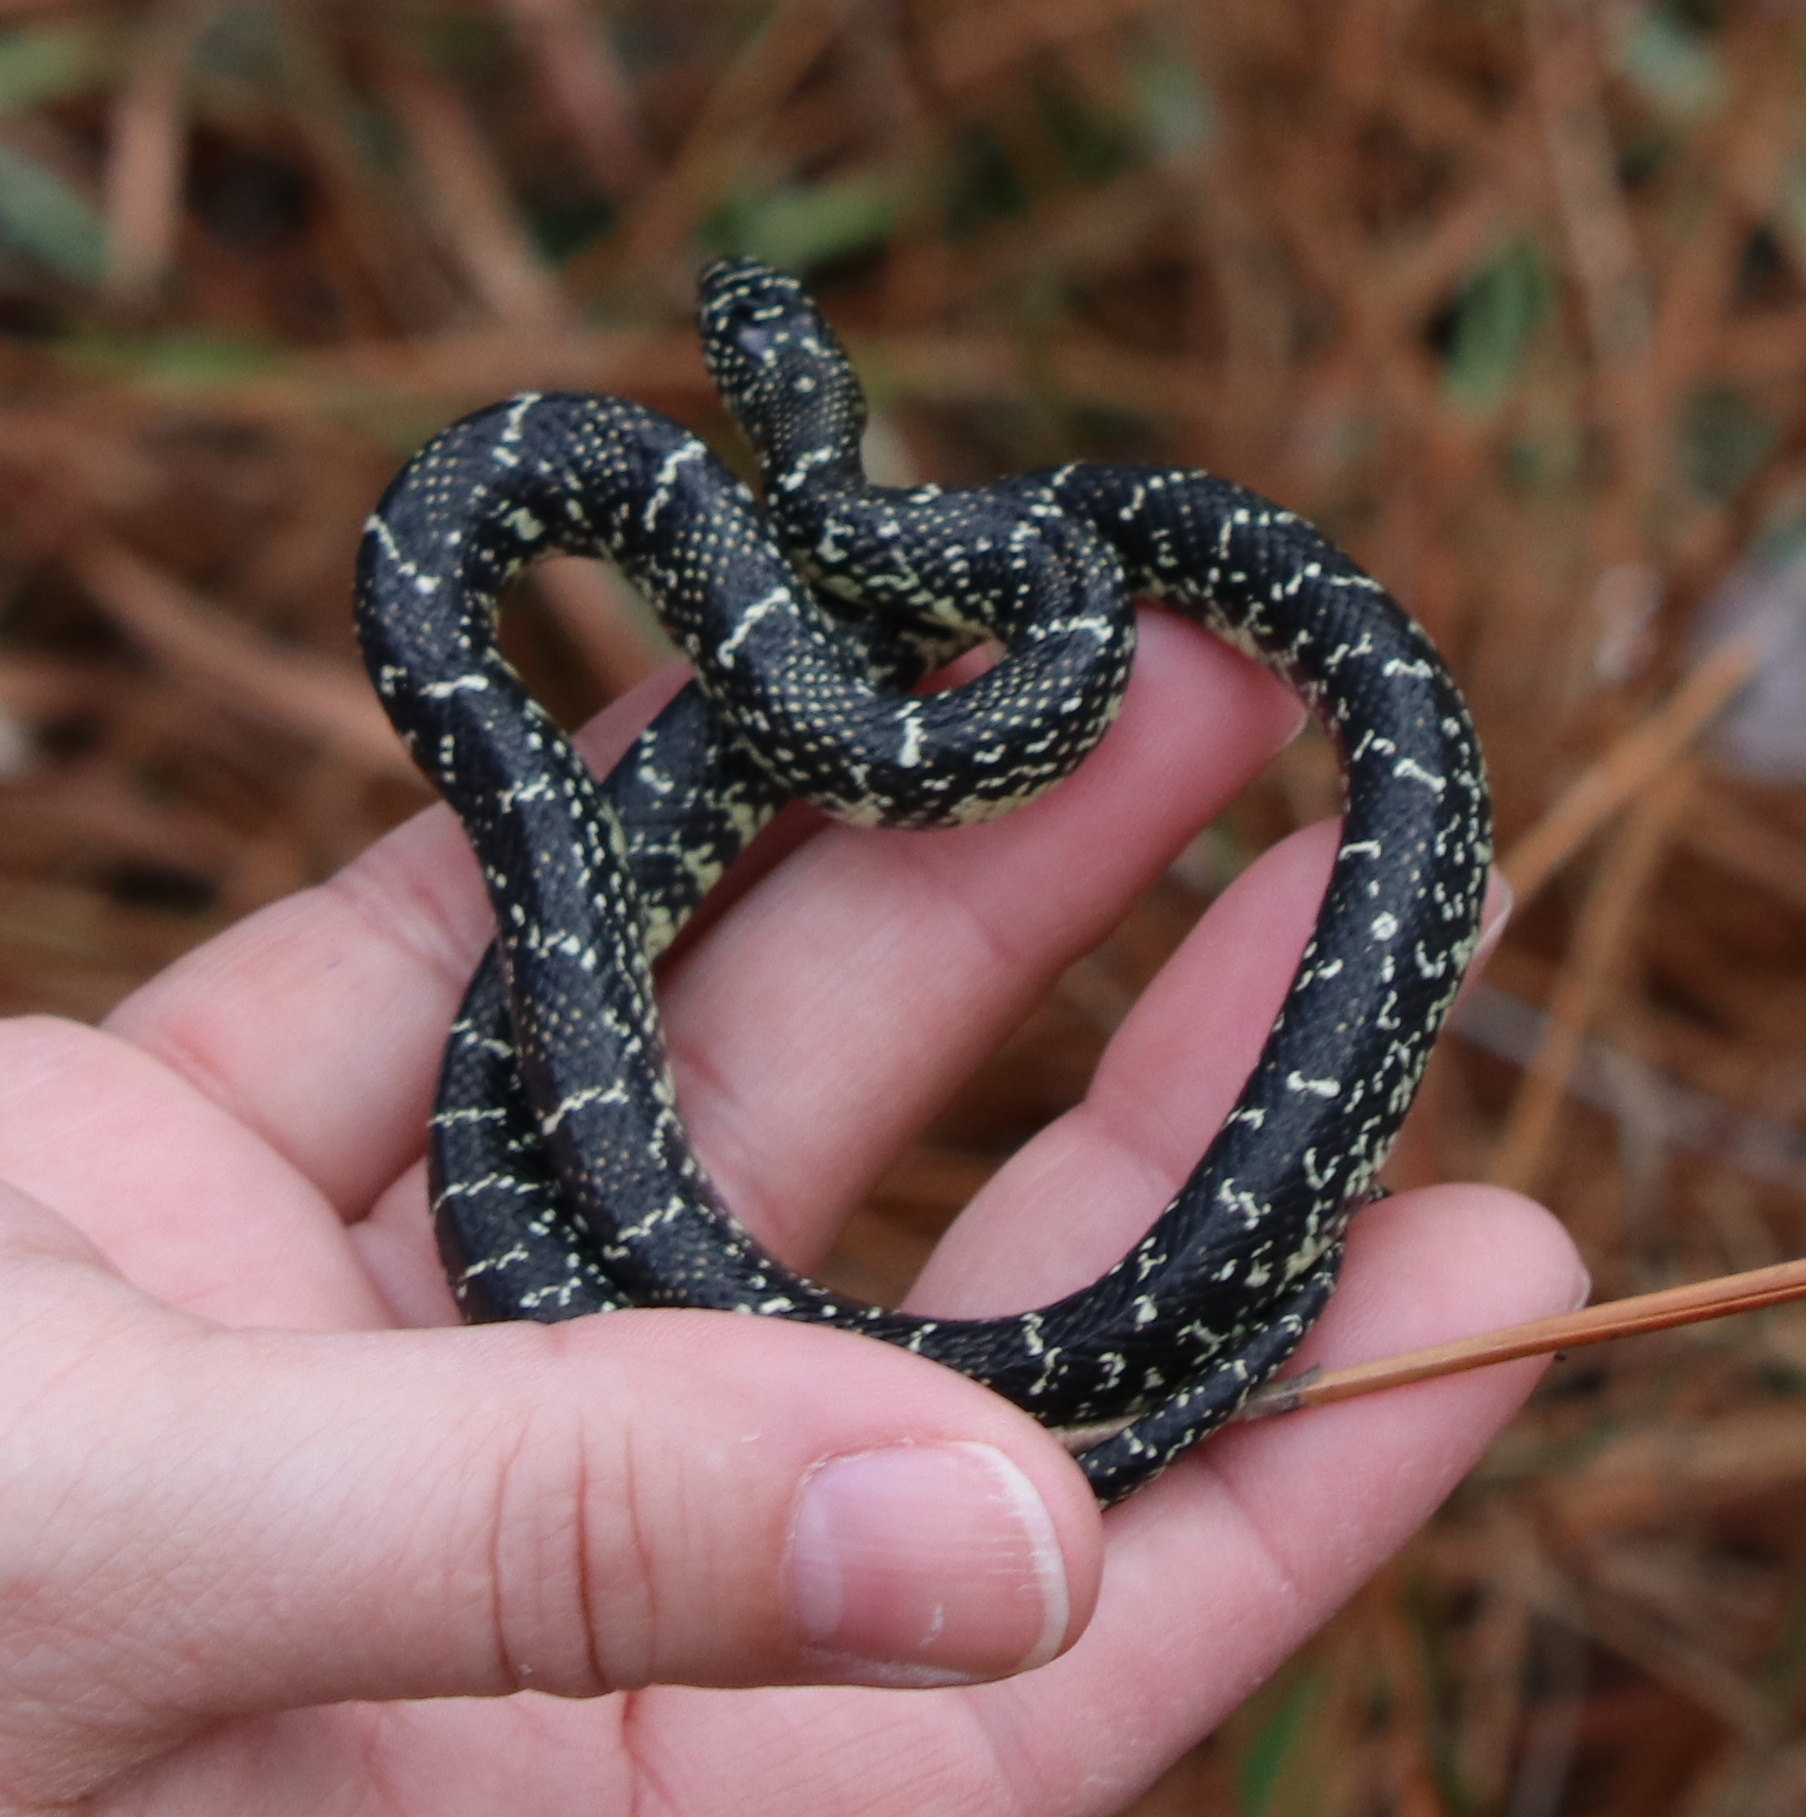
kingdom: Animalia
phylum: Chordata
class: Squamata
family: Colubridae
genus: Lampropeltis
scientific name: Lampropeltis holbrooki
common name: Speckled kingsnake
